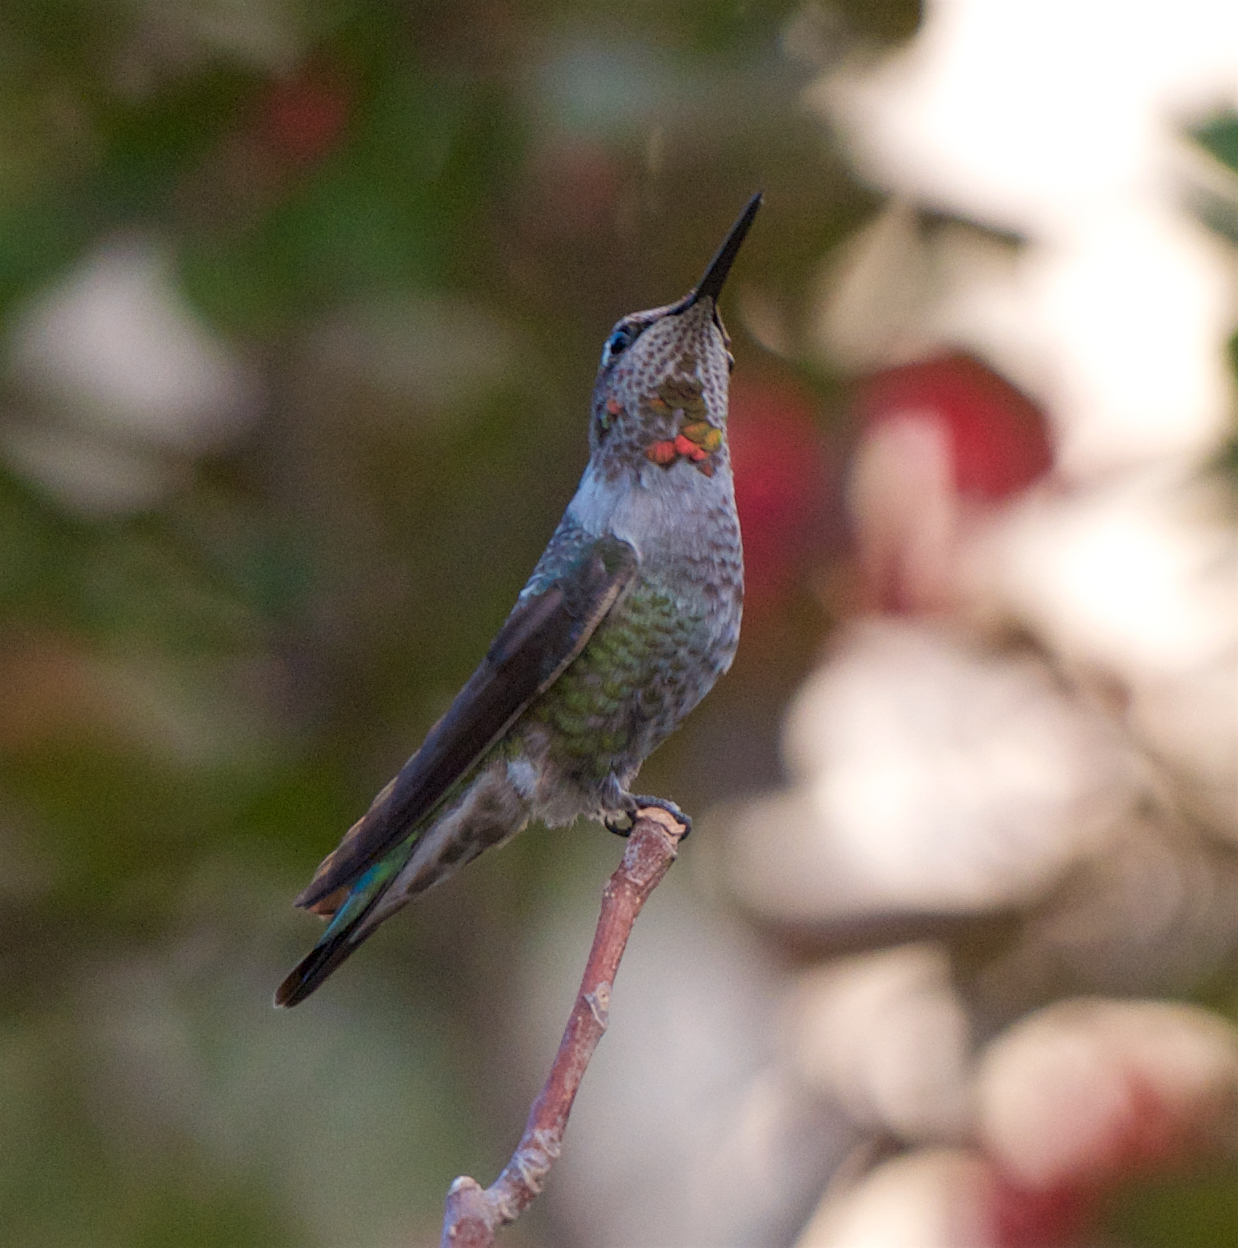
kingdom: Animalia
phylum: Chordata
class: Aves
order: Apodiformes
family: Trochilidae
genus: Calypte
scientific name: Calypte anna
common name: Anna's hummingbird
